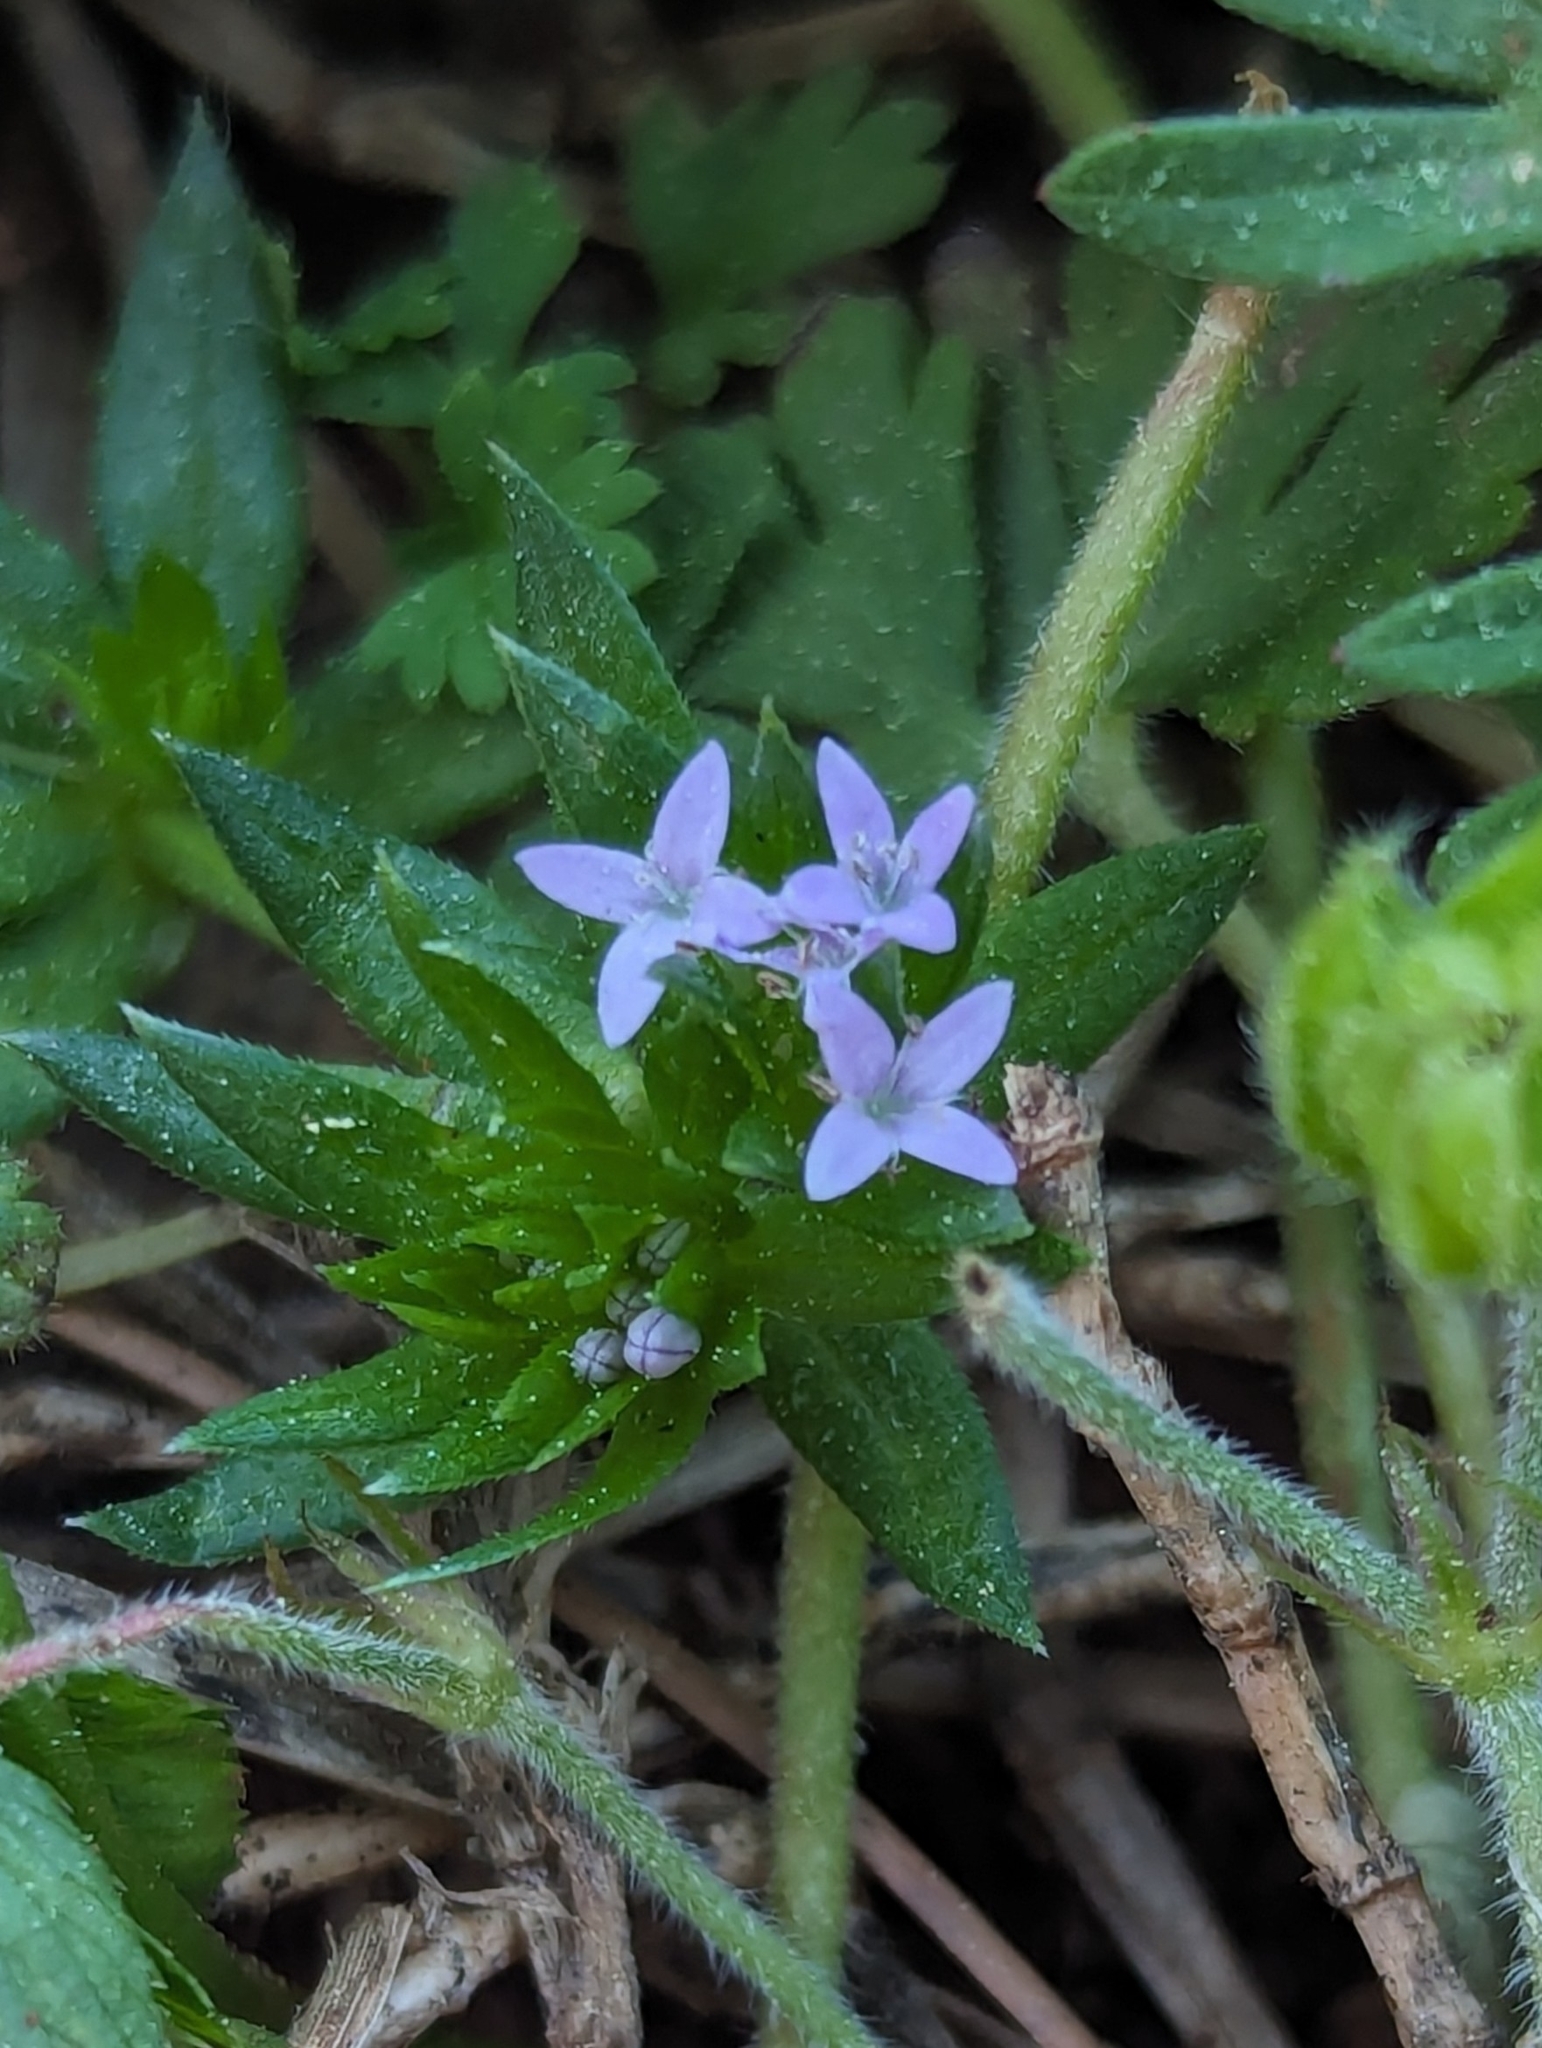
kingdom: Plantae
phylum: Tracheophyta
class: Magnoliopsida
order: Gentianales
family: Rubiaceae
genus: Sherardia
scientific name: Sherardia arvensis
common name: Field madder
